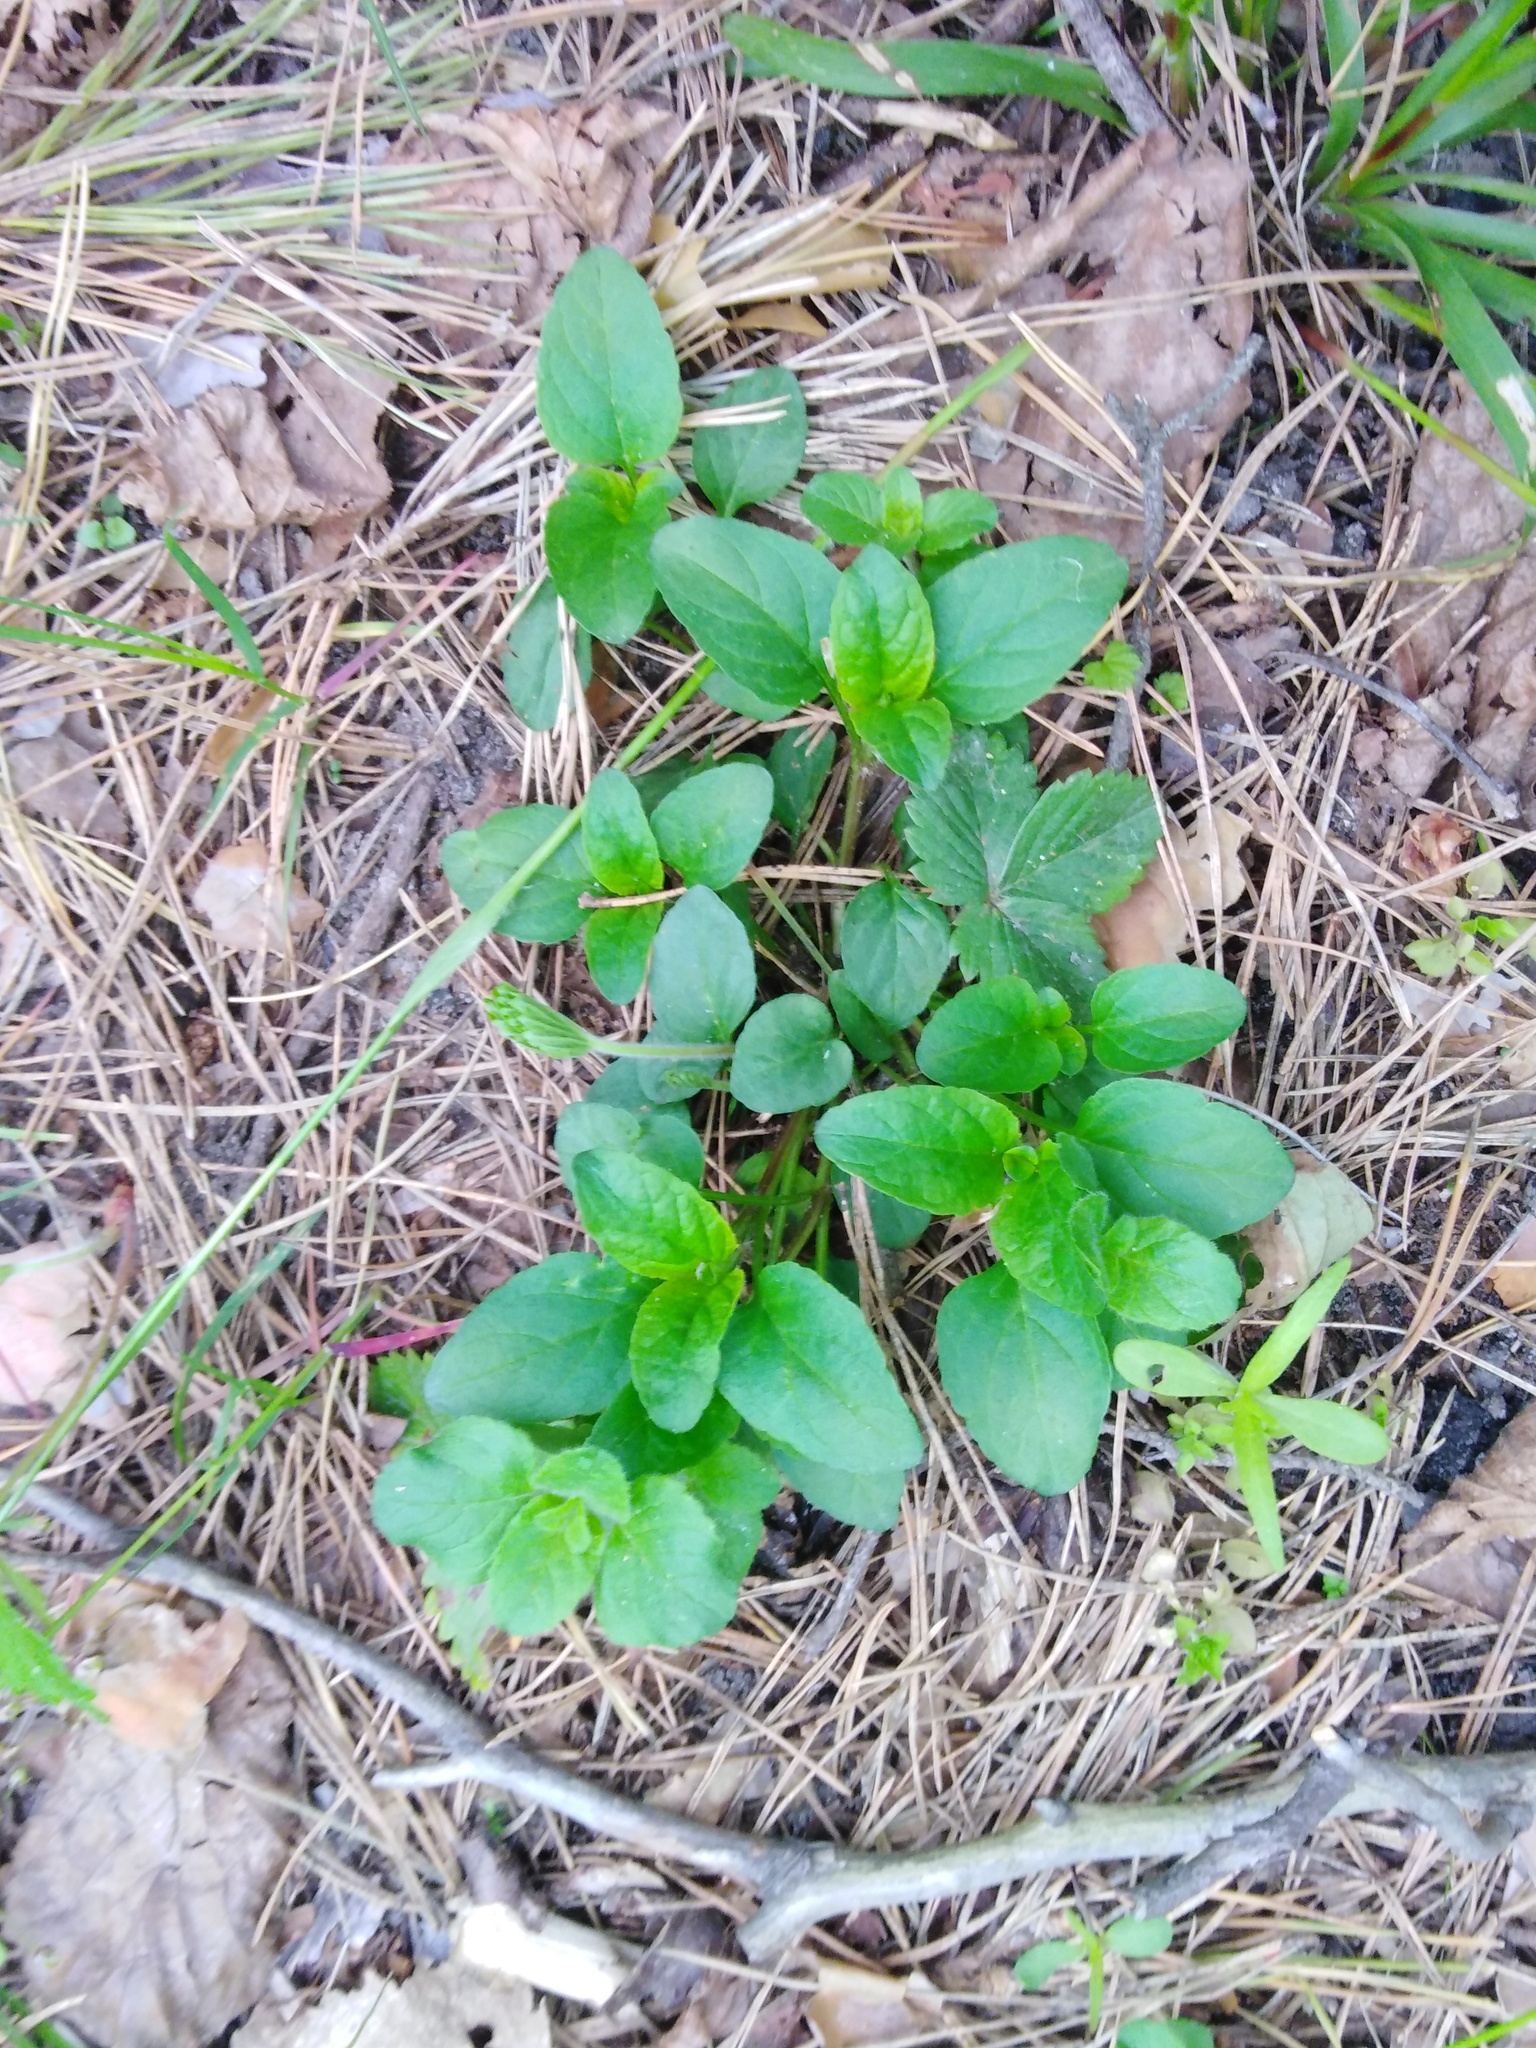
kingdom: Plantae
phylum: Tracheophyta
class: Magnoliopsida
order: Lamiales
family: Lamiaceae
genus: Prunella
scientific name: Prunella vulgaris
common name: Heal-all
